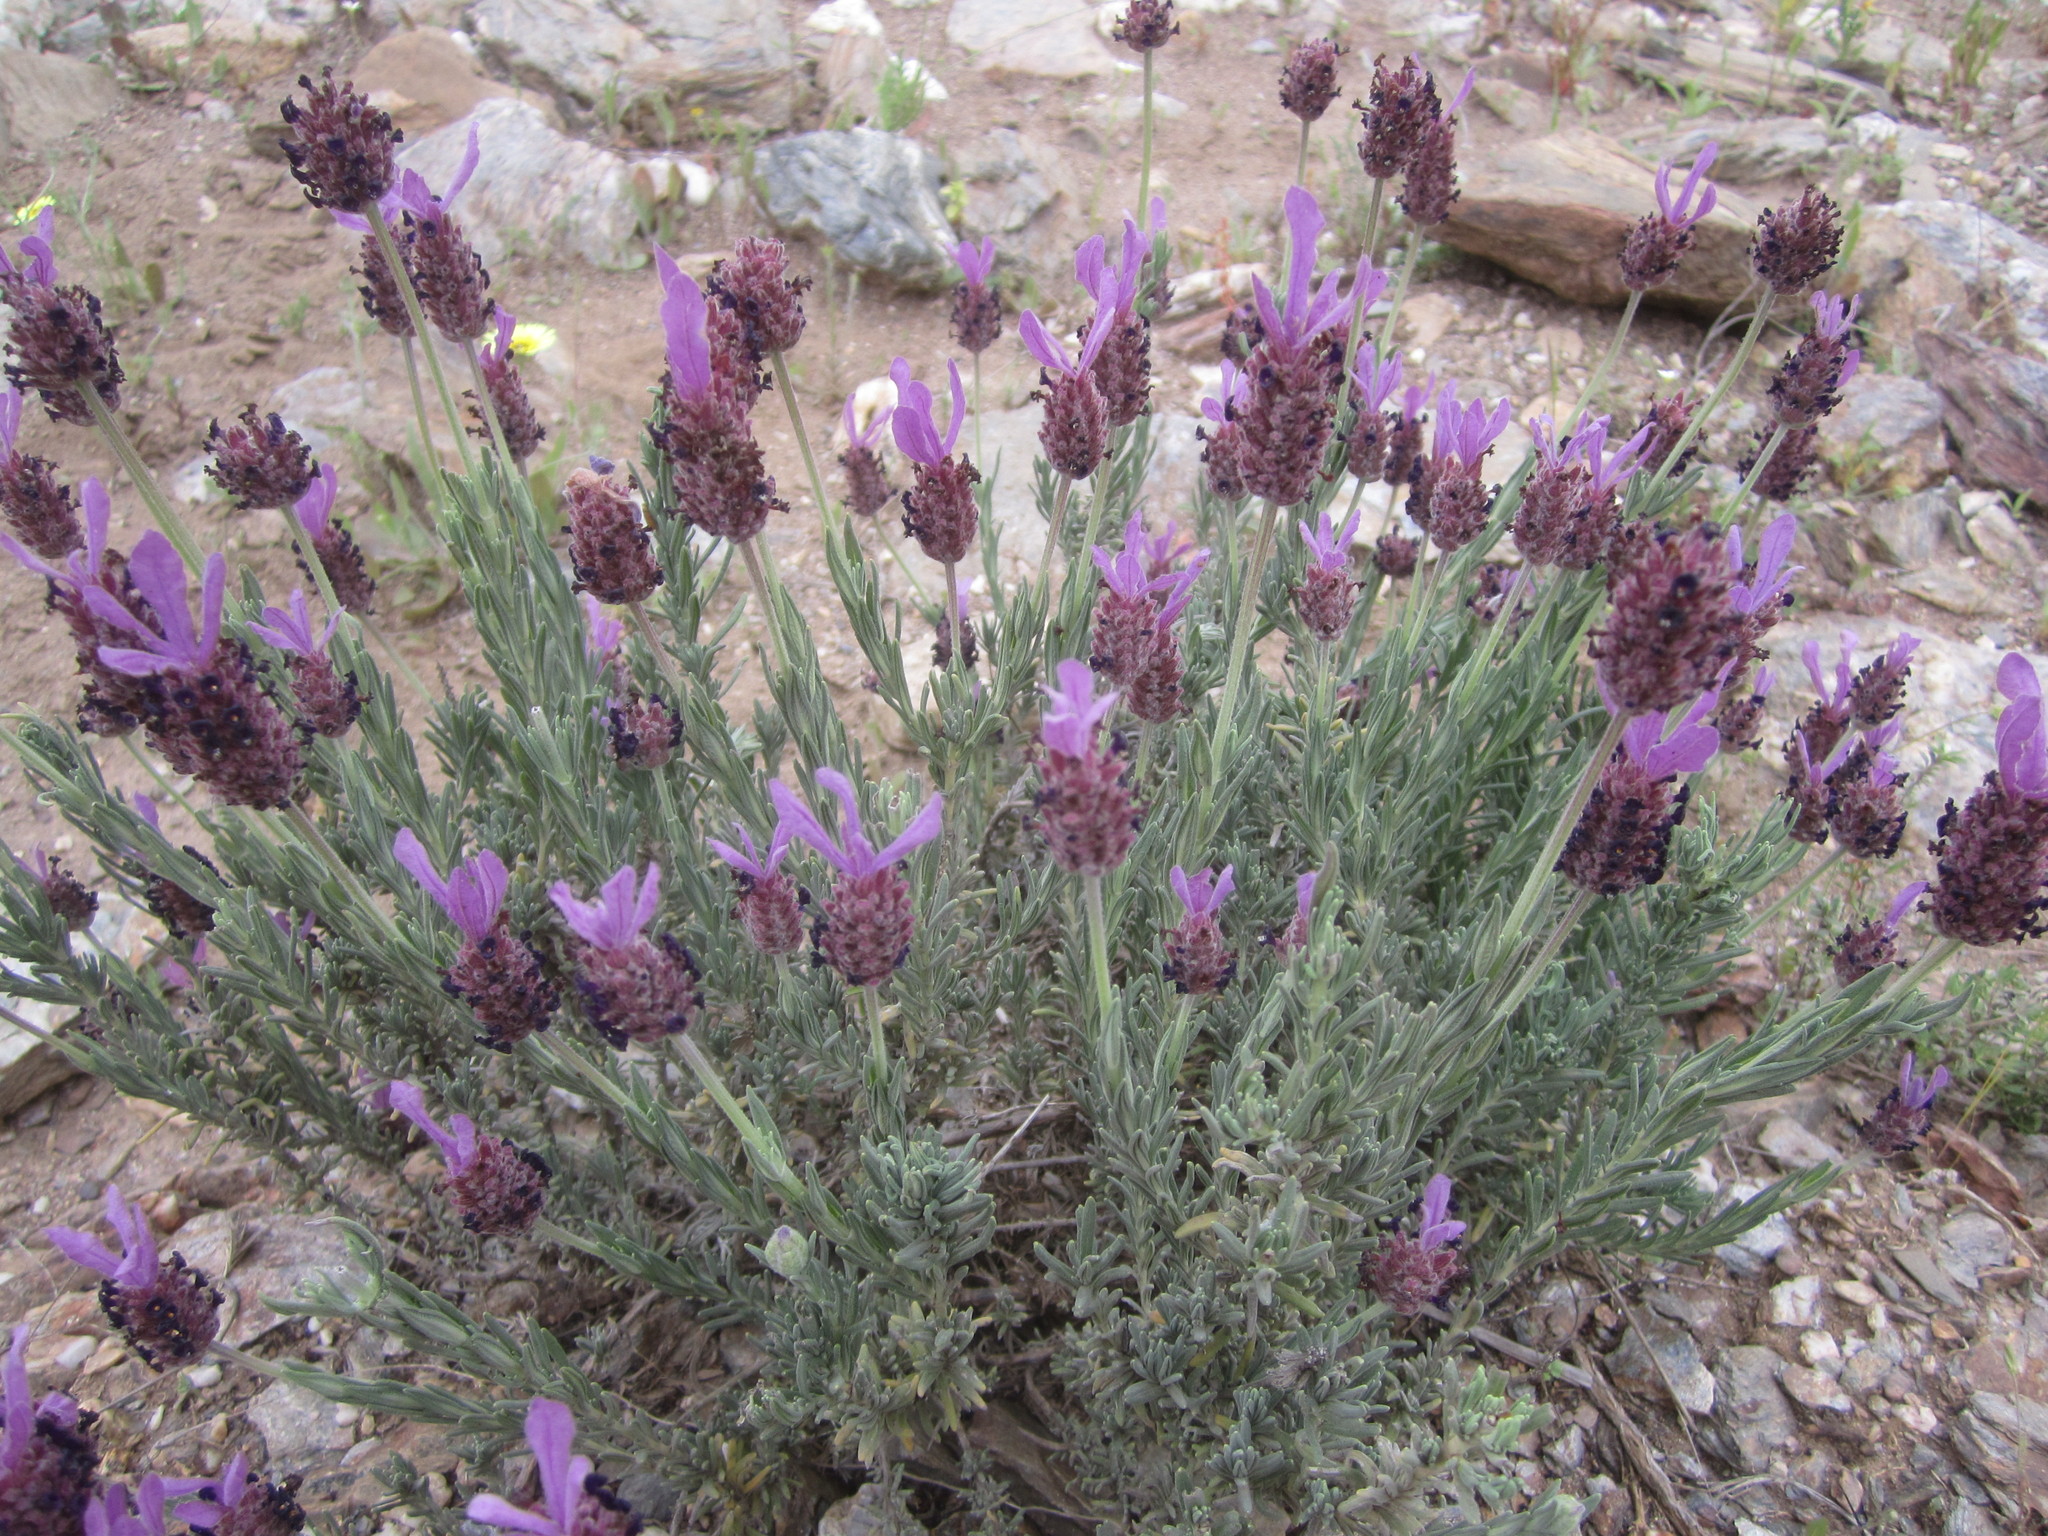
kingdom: Plantae
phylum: Tracheophyta
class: Magnoliopsida
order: Lamiales
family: Lamiaceae
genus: Lavandula
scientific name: Lavandula pedunculata
